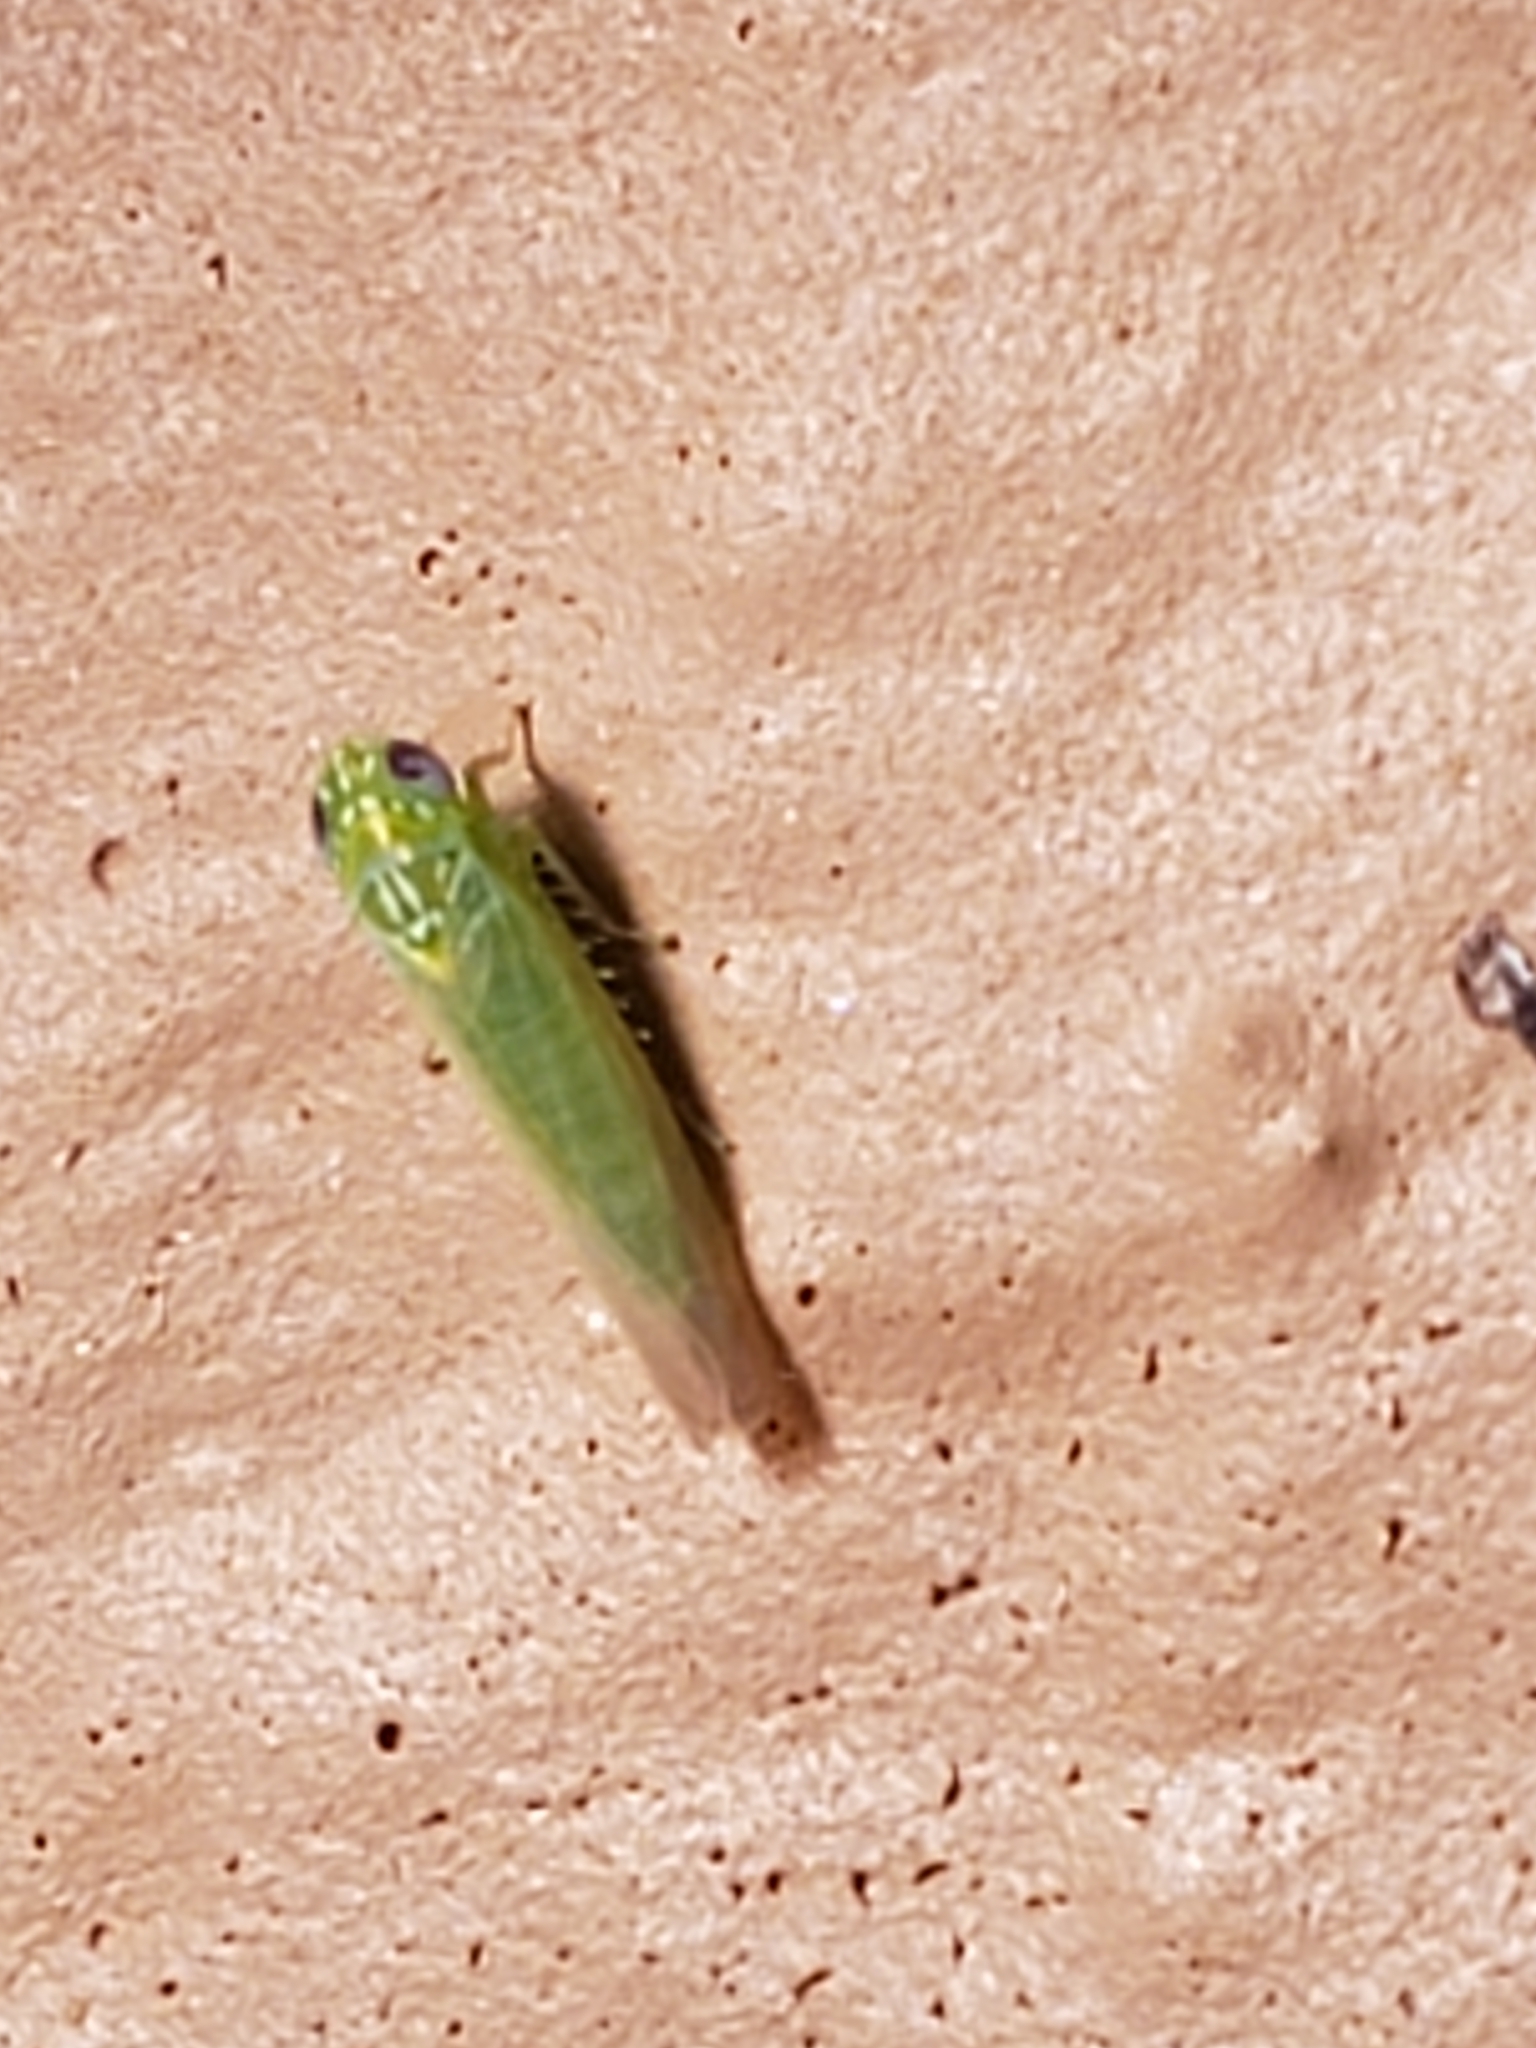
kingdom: Animalia
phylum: Arthropoda
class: Insecta
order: Hemiptera
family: Cicadellidae
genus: Empoasca
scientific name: Empoasca fabae
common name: Potato leafhopper
